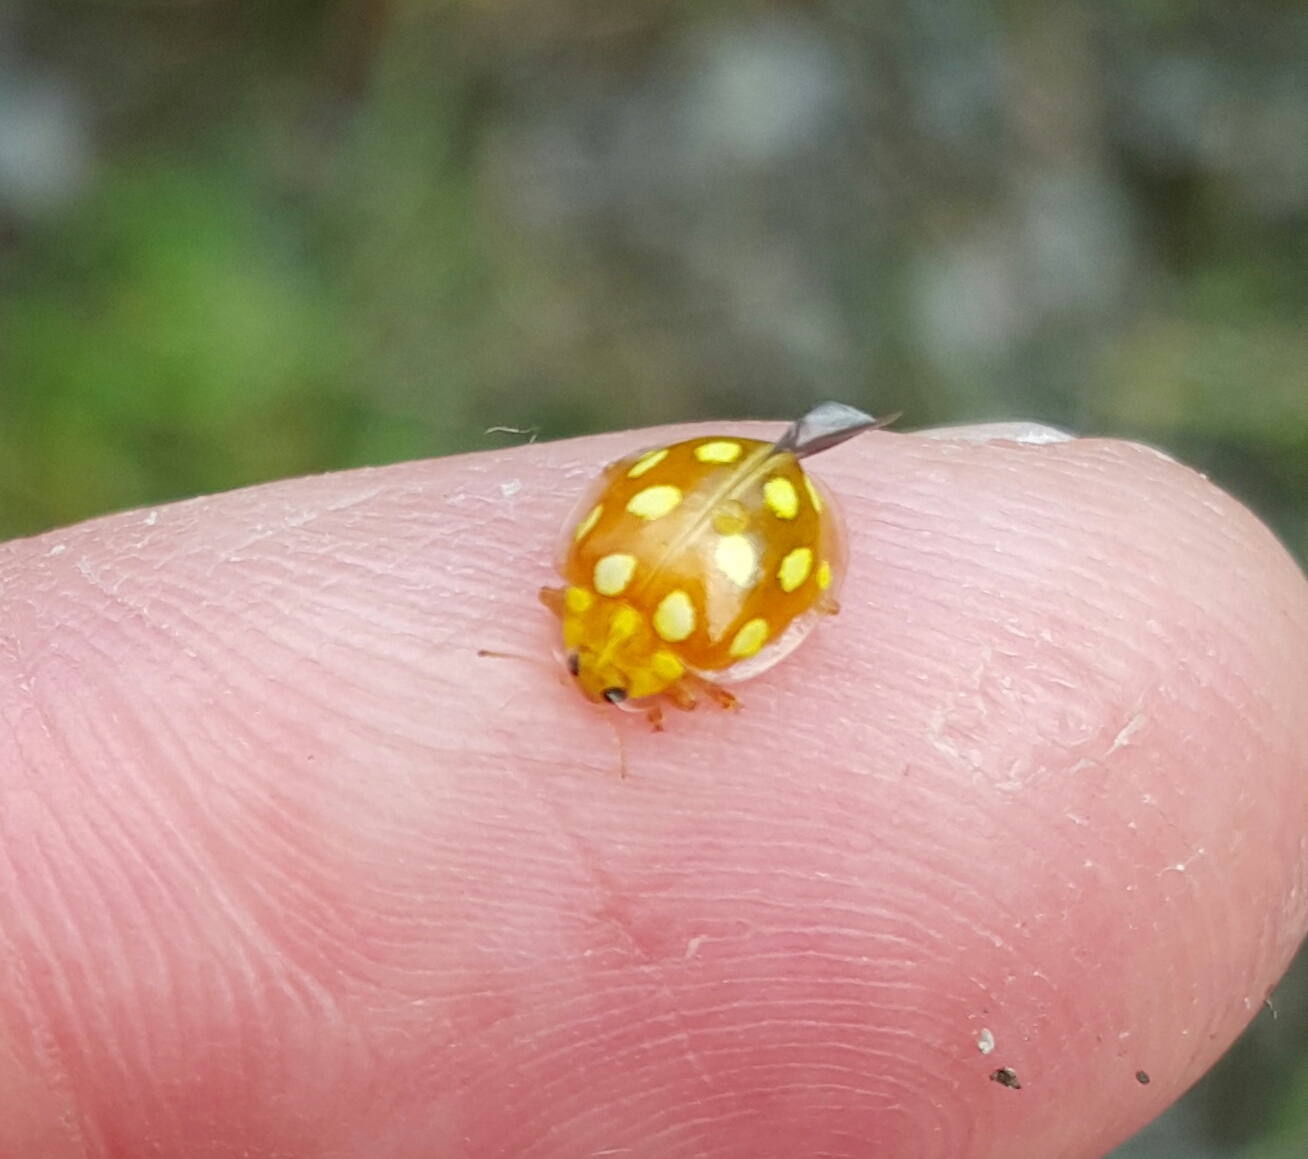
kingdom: Animalia
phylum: Arthropoda
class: Insecta
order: Coleoptera
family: Coccinellidae
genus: Halyzia
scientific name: Halyzia sedecimguttata
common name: Orange ladybird
